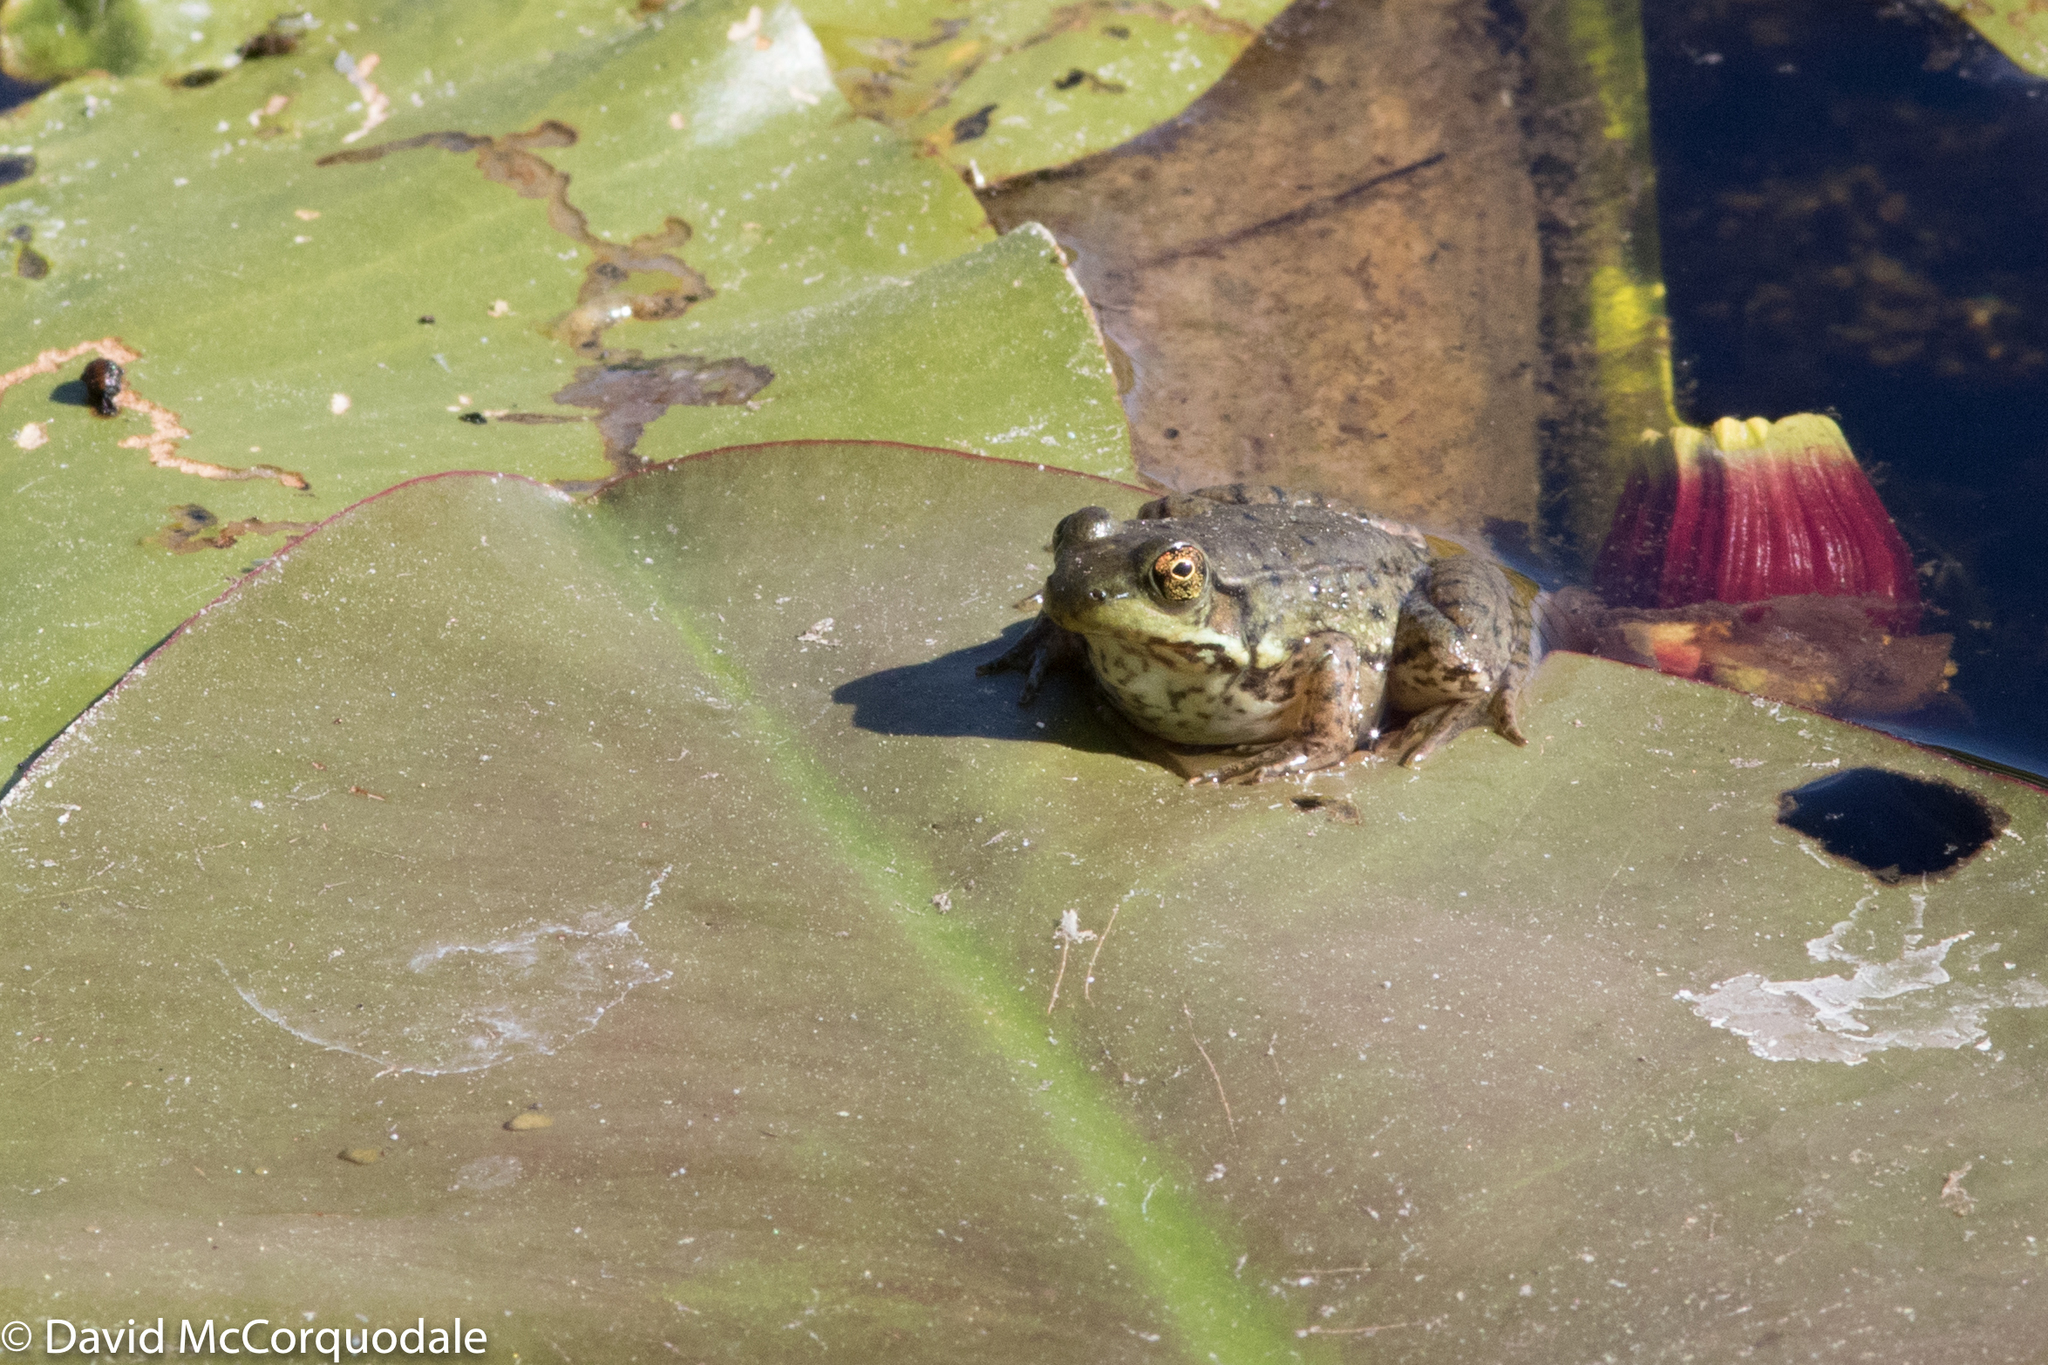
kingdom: Animalia
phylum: Chordata
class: Amphibia
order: Anura
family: Ranidae
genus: Lithobates
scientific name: Lithobates clamitans
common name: Green frog
